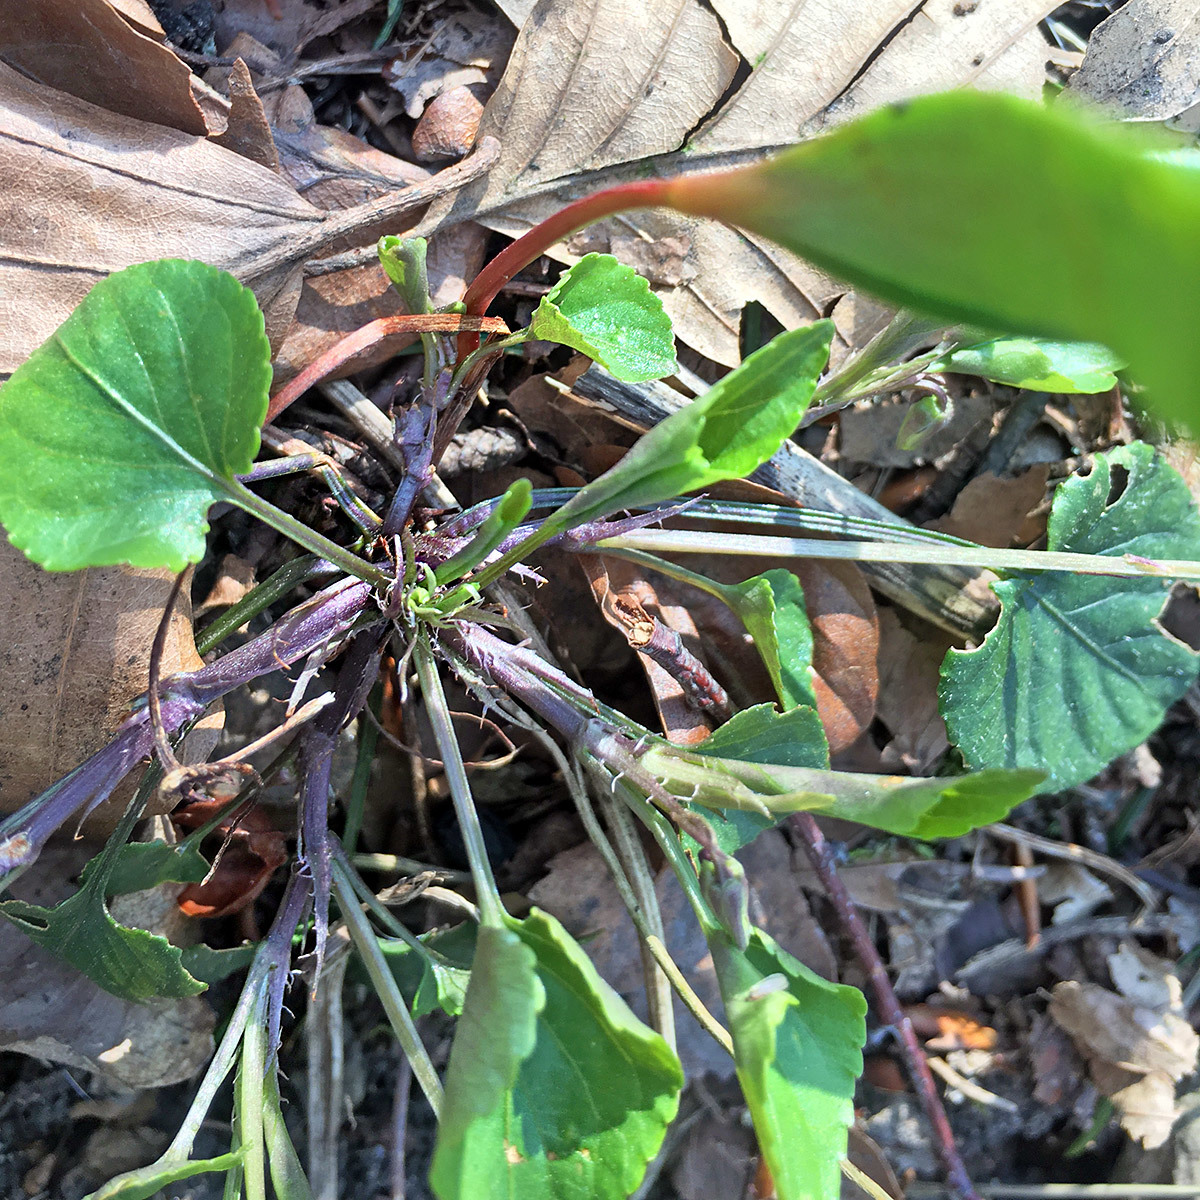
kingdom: Plantae
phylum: Tracheophyta
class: Magnoliopsida
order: Malpighiales
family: Violaceae
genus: Viola
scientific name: Viola reichenbachiana
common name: Early dog-violet
